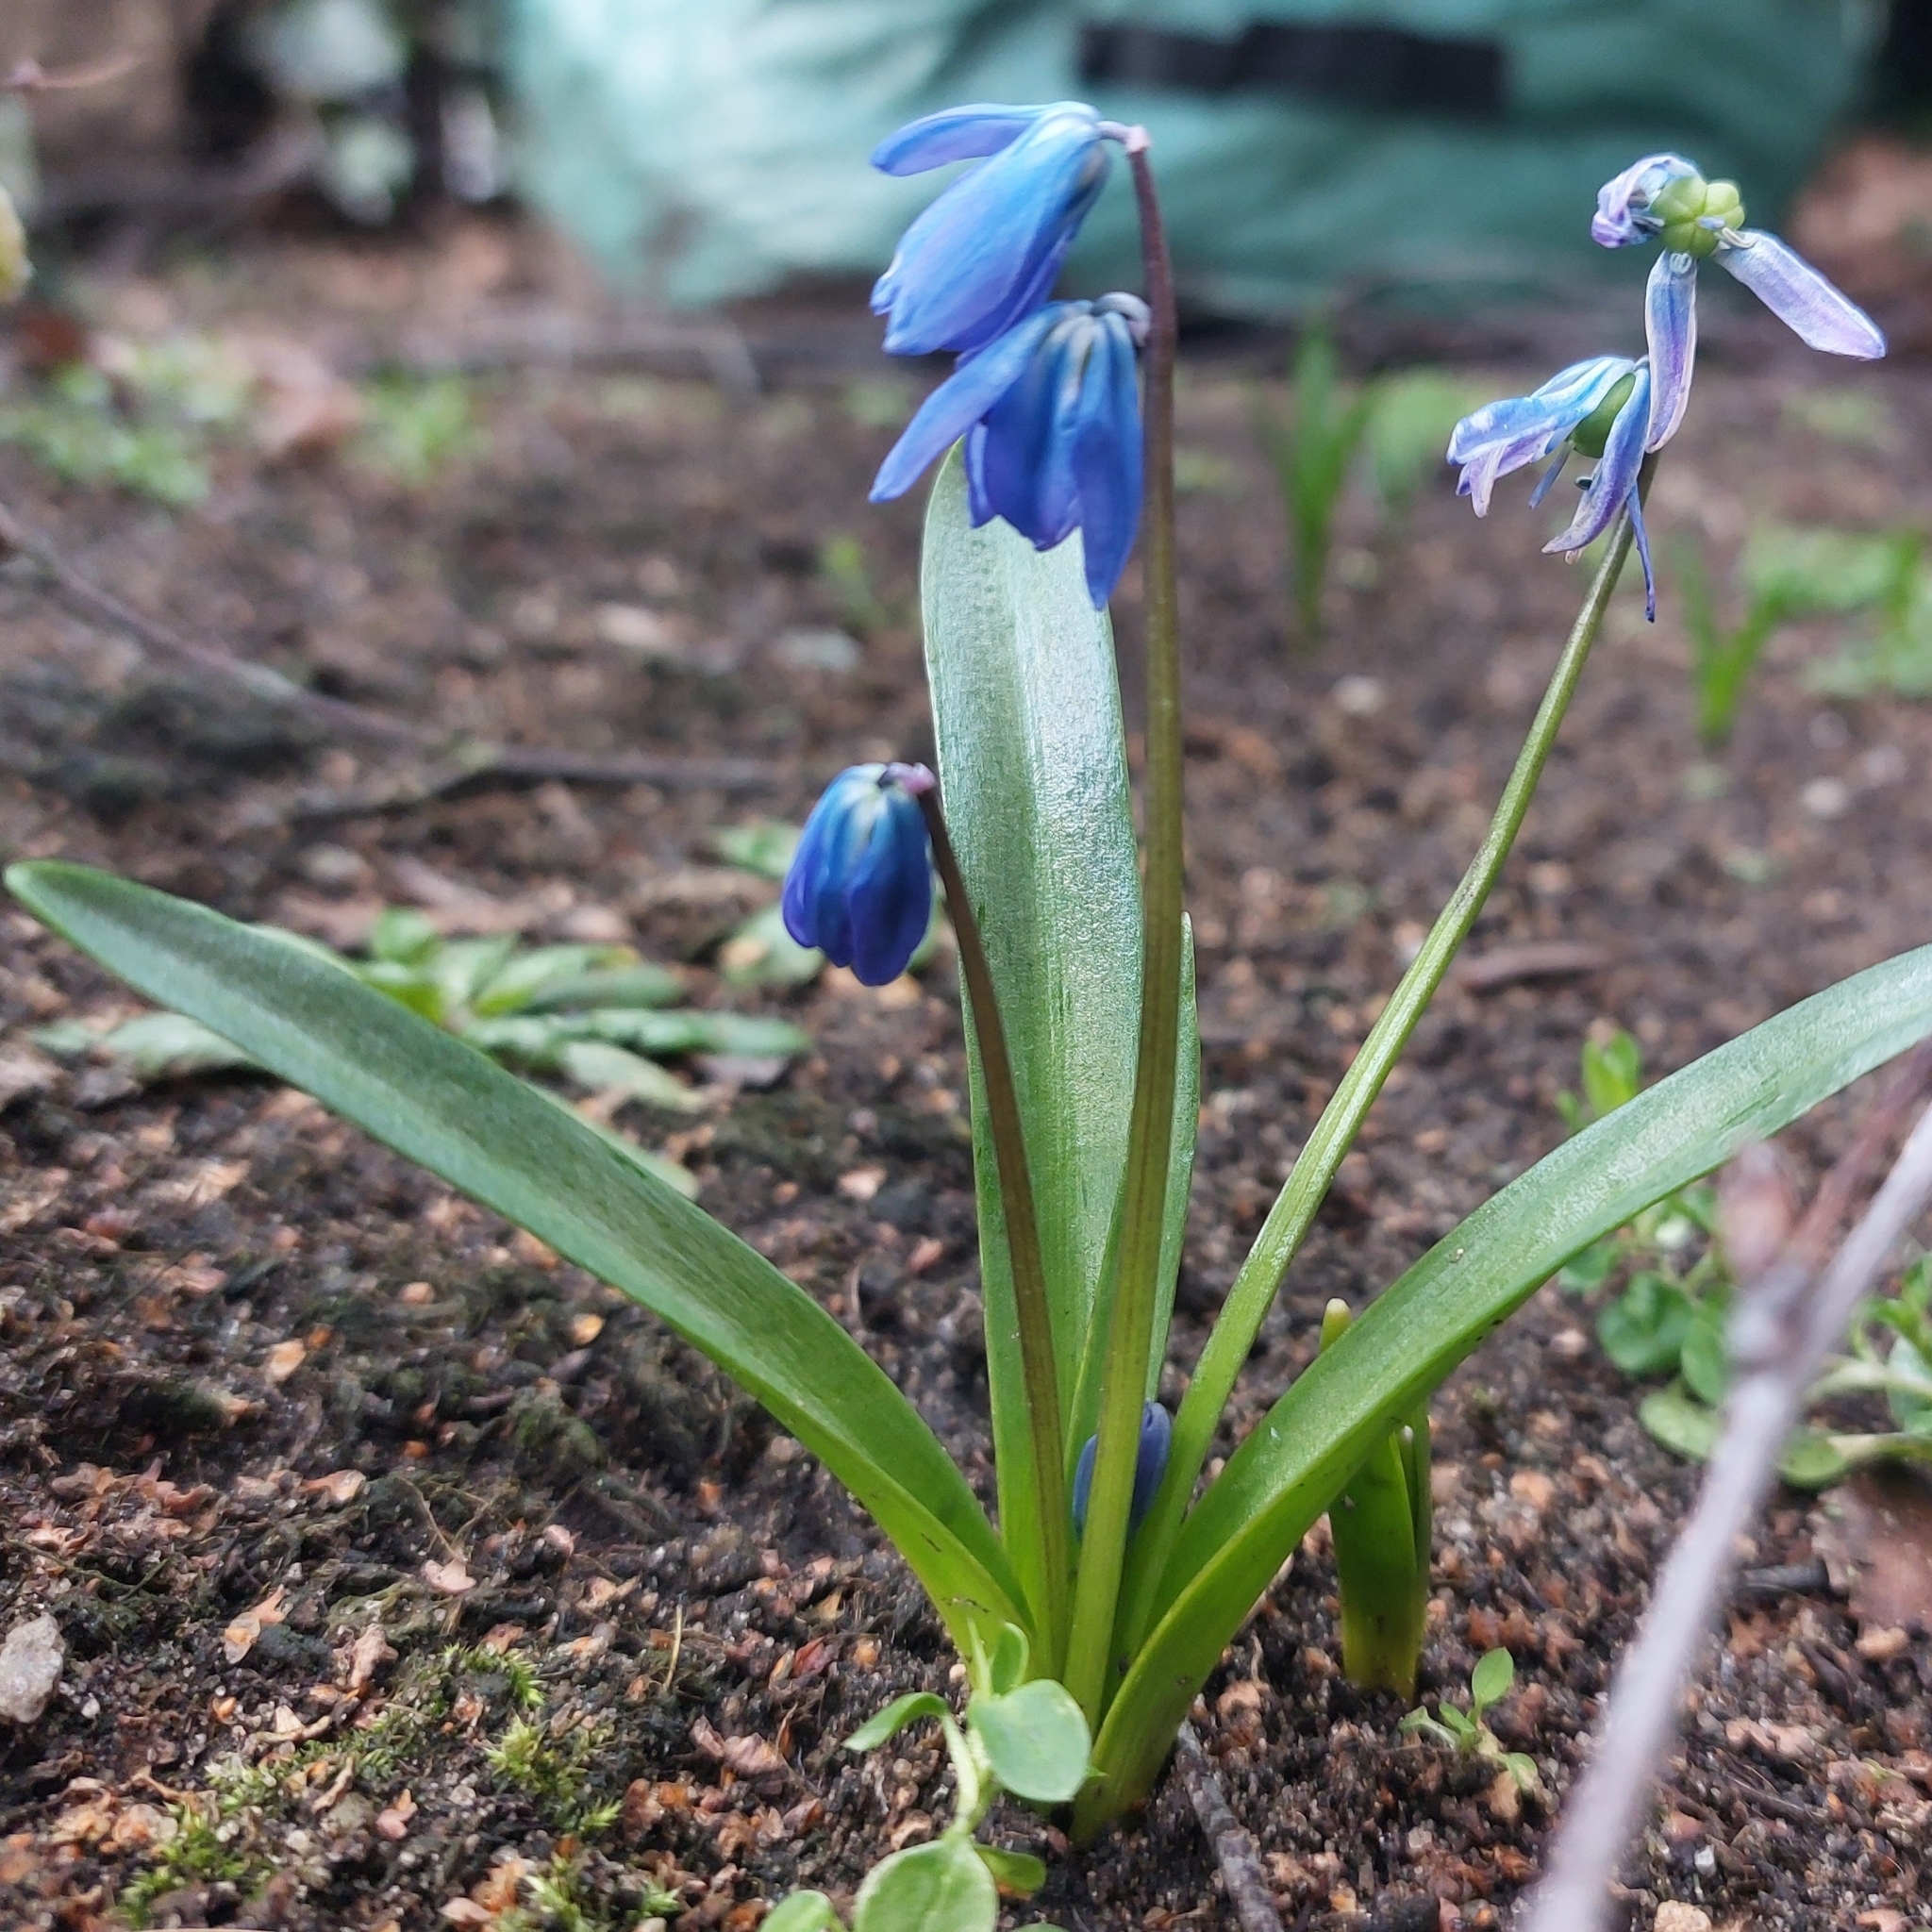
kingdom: Plantae
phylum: Tracheophyta
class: Liliopsida
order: Asparagales
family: Asparagaceae
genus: Scilla
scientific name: Scilla siberica
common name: Siberian squill
